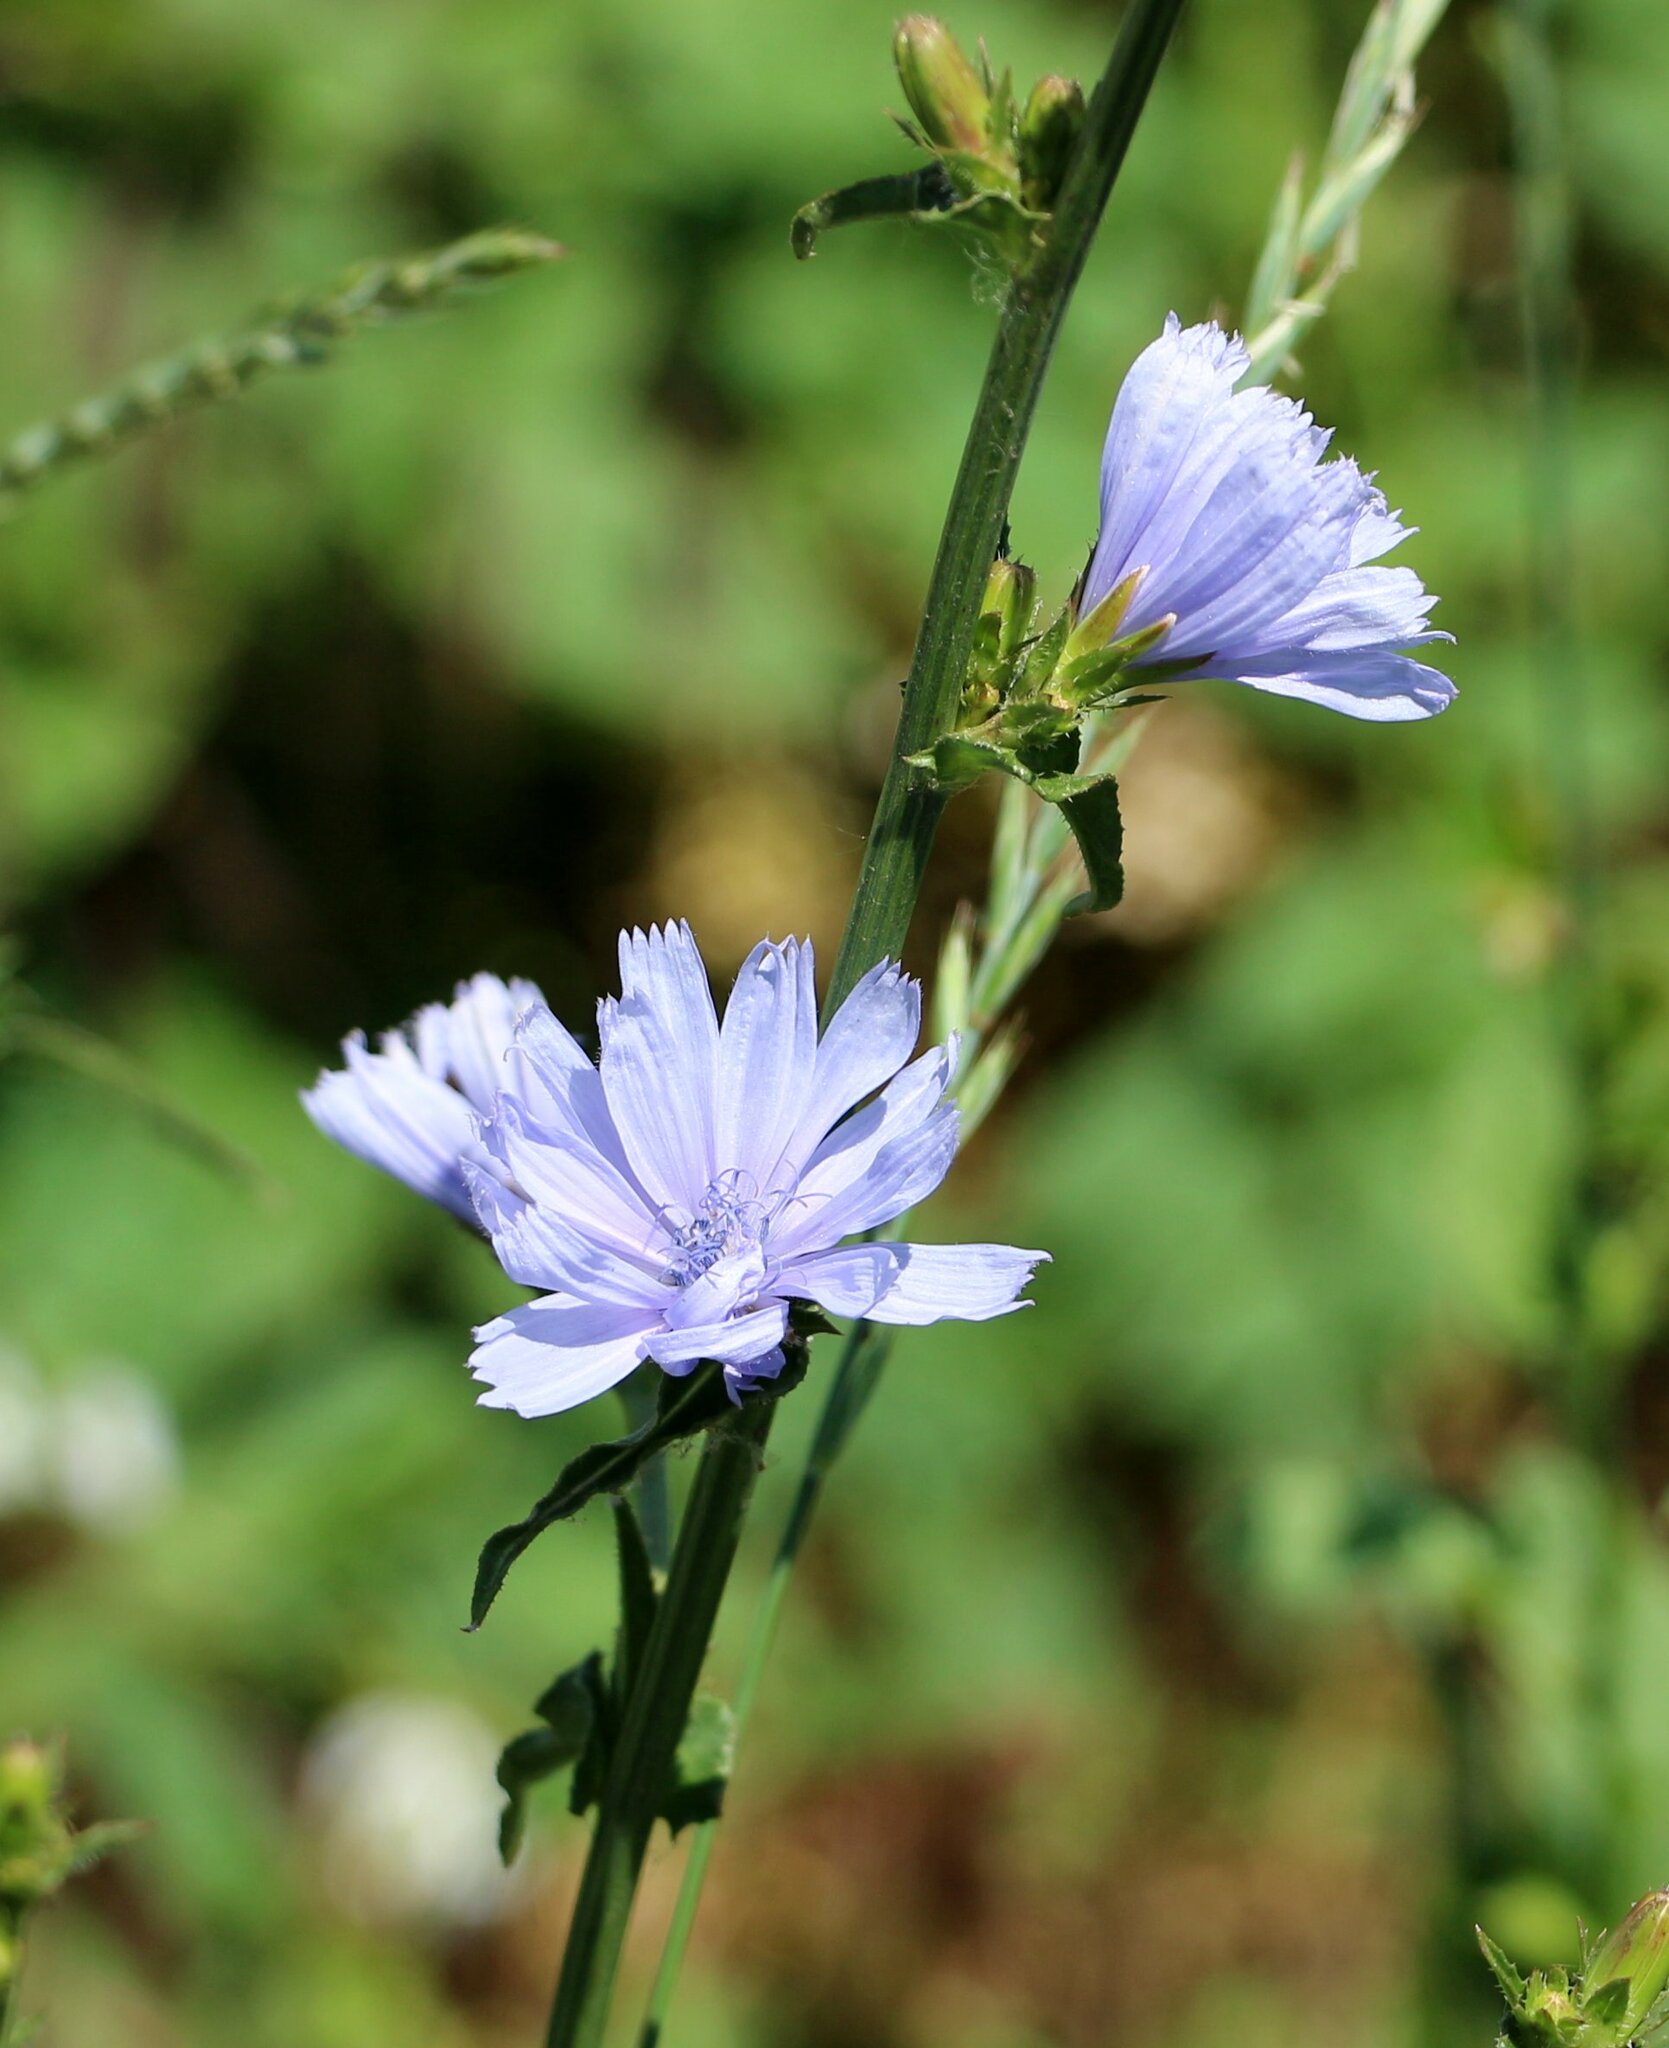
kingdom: Plantae
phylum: Tracheophyta
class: Magnoliopsida
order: Asterales
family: Asteraceae
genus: Cichorium
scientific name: Cichorium intybus
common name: Chicory
